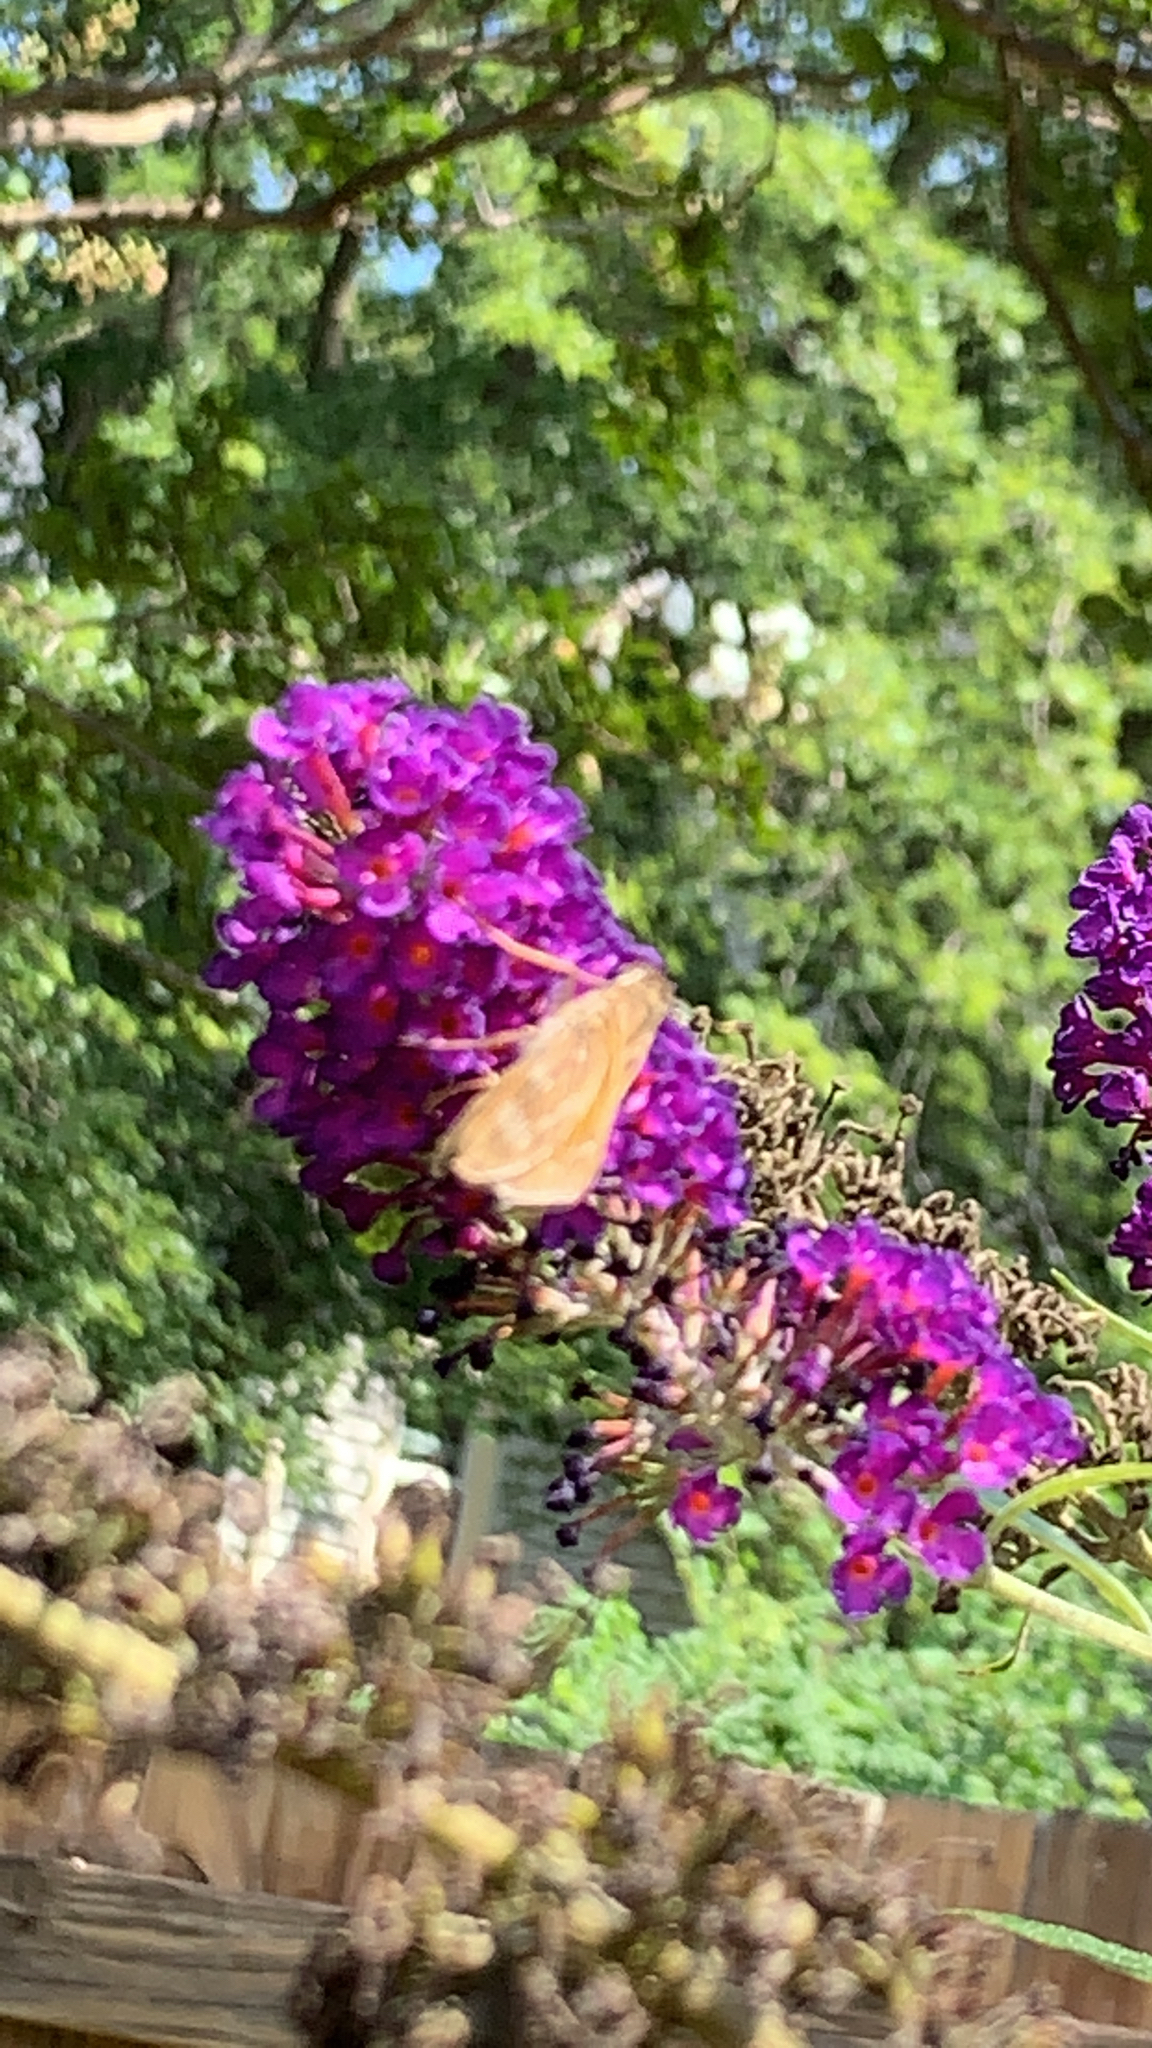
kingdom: Animalia
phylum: Arthropoda
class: Insecta
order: Lepidoptera
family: Hesperiidae
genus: Atalopedes
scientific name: Atalopedes
